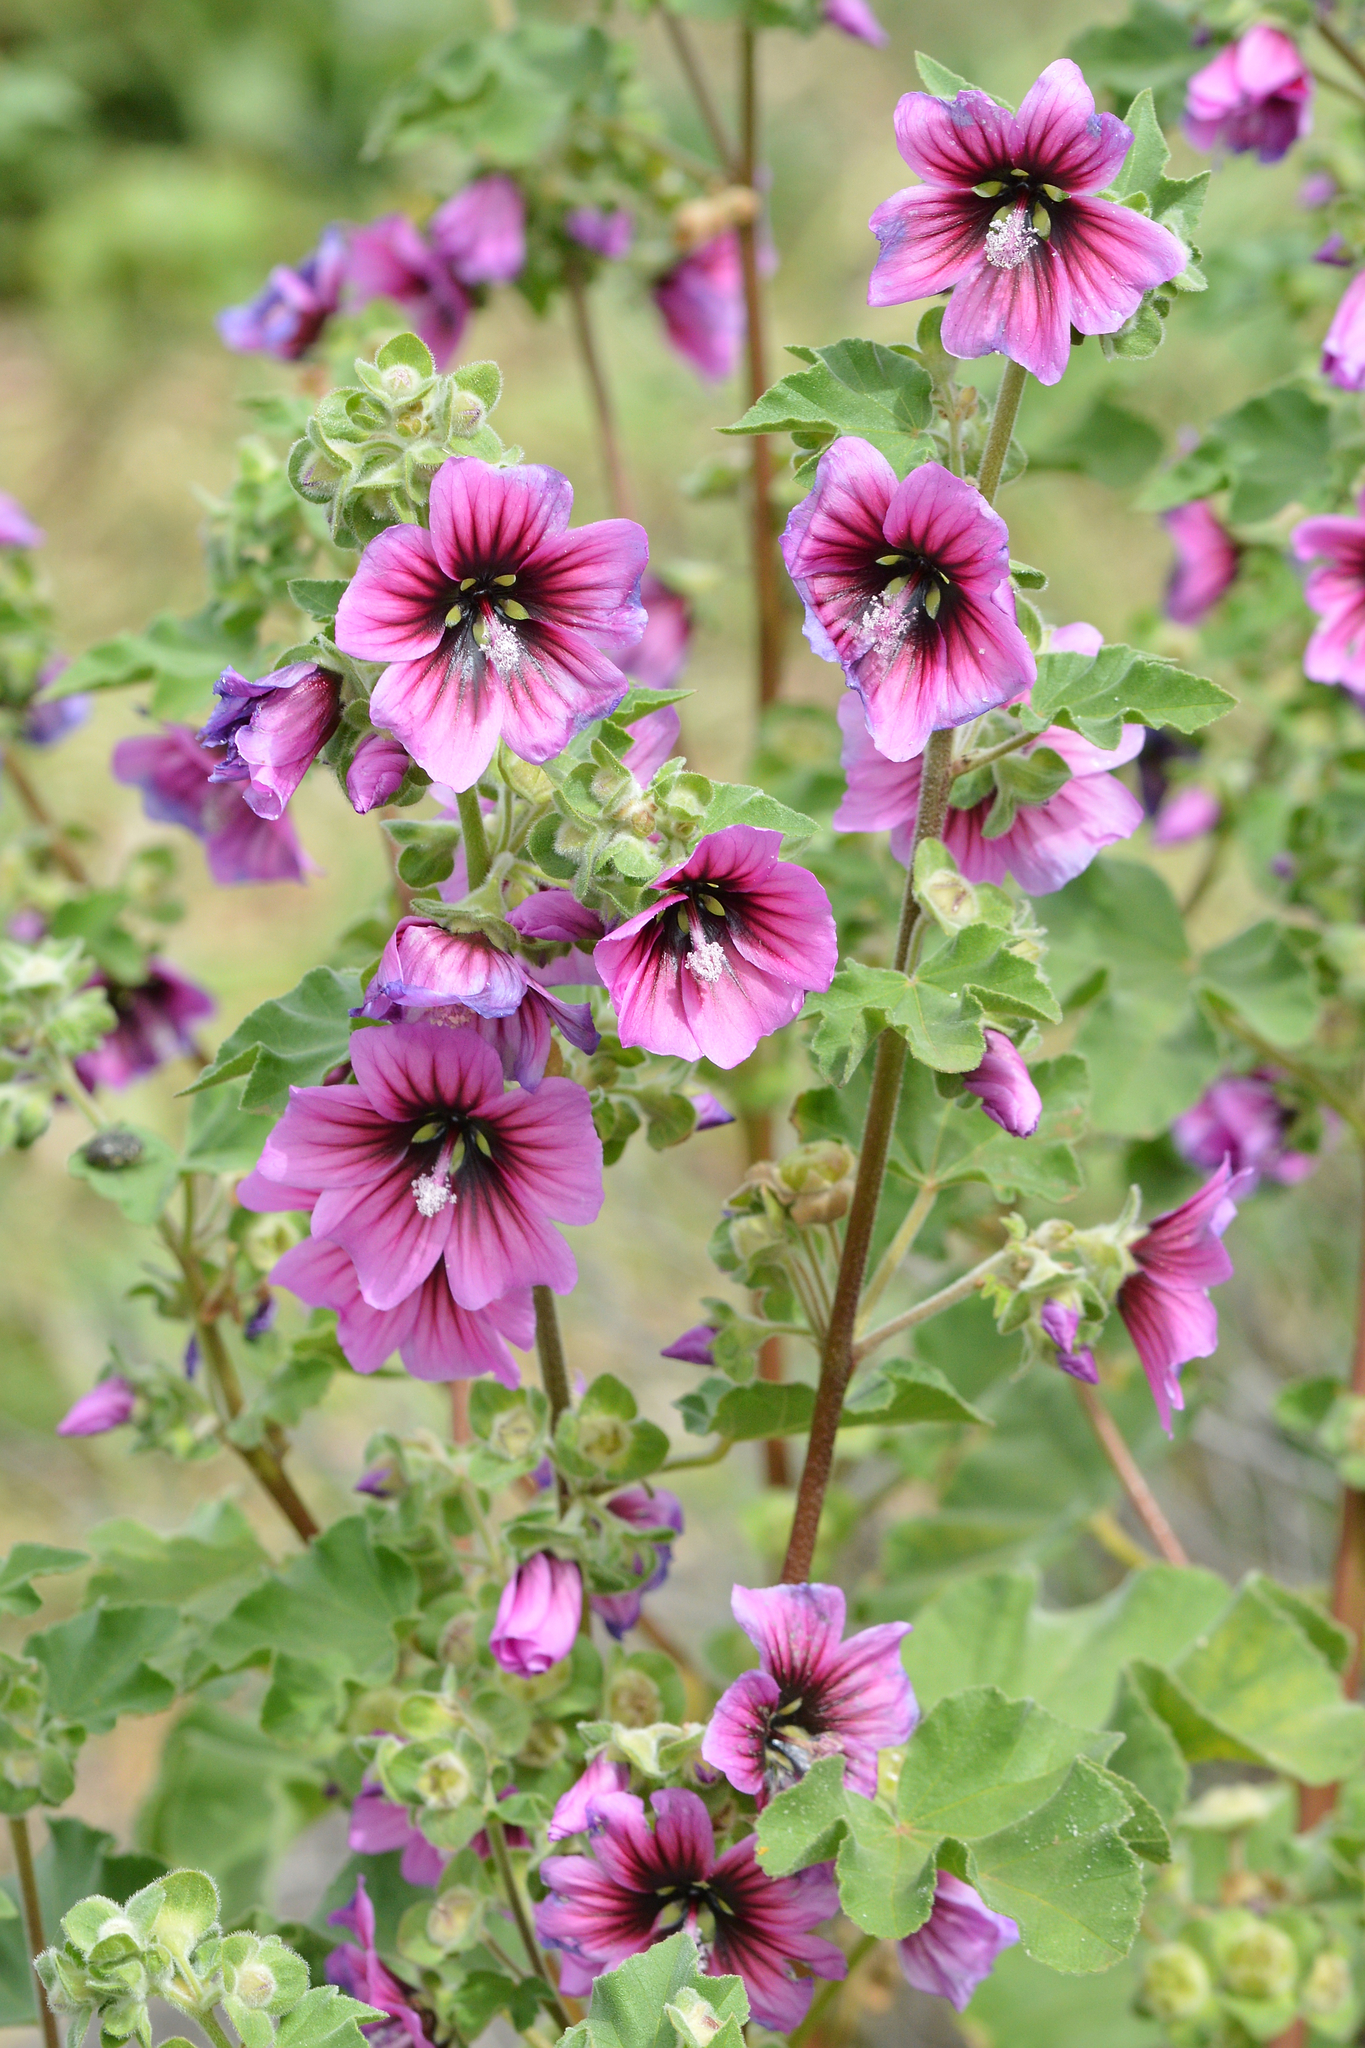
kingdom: Plantae
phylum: Tracheophyta
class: Magnoliopsida
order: Malvales
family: Malvaceae
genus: Malva
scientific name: Malva arborea
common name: Tree mallow
